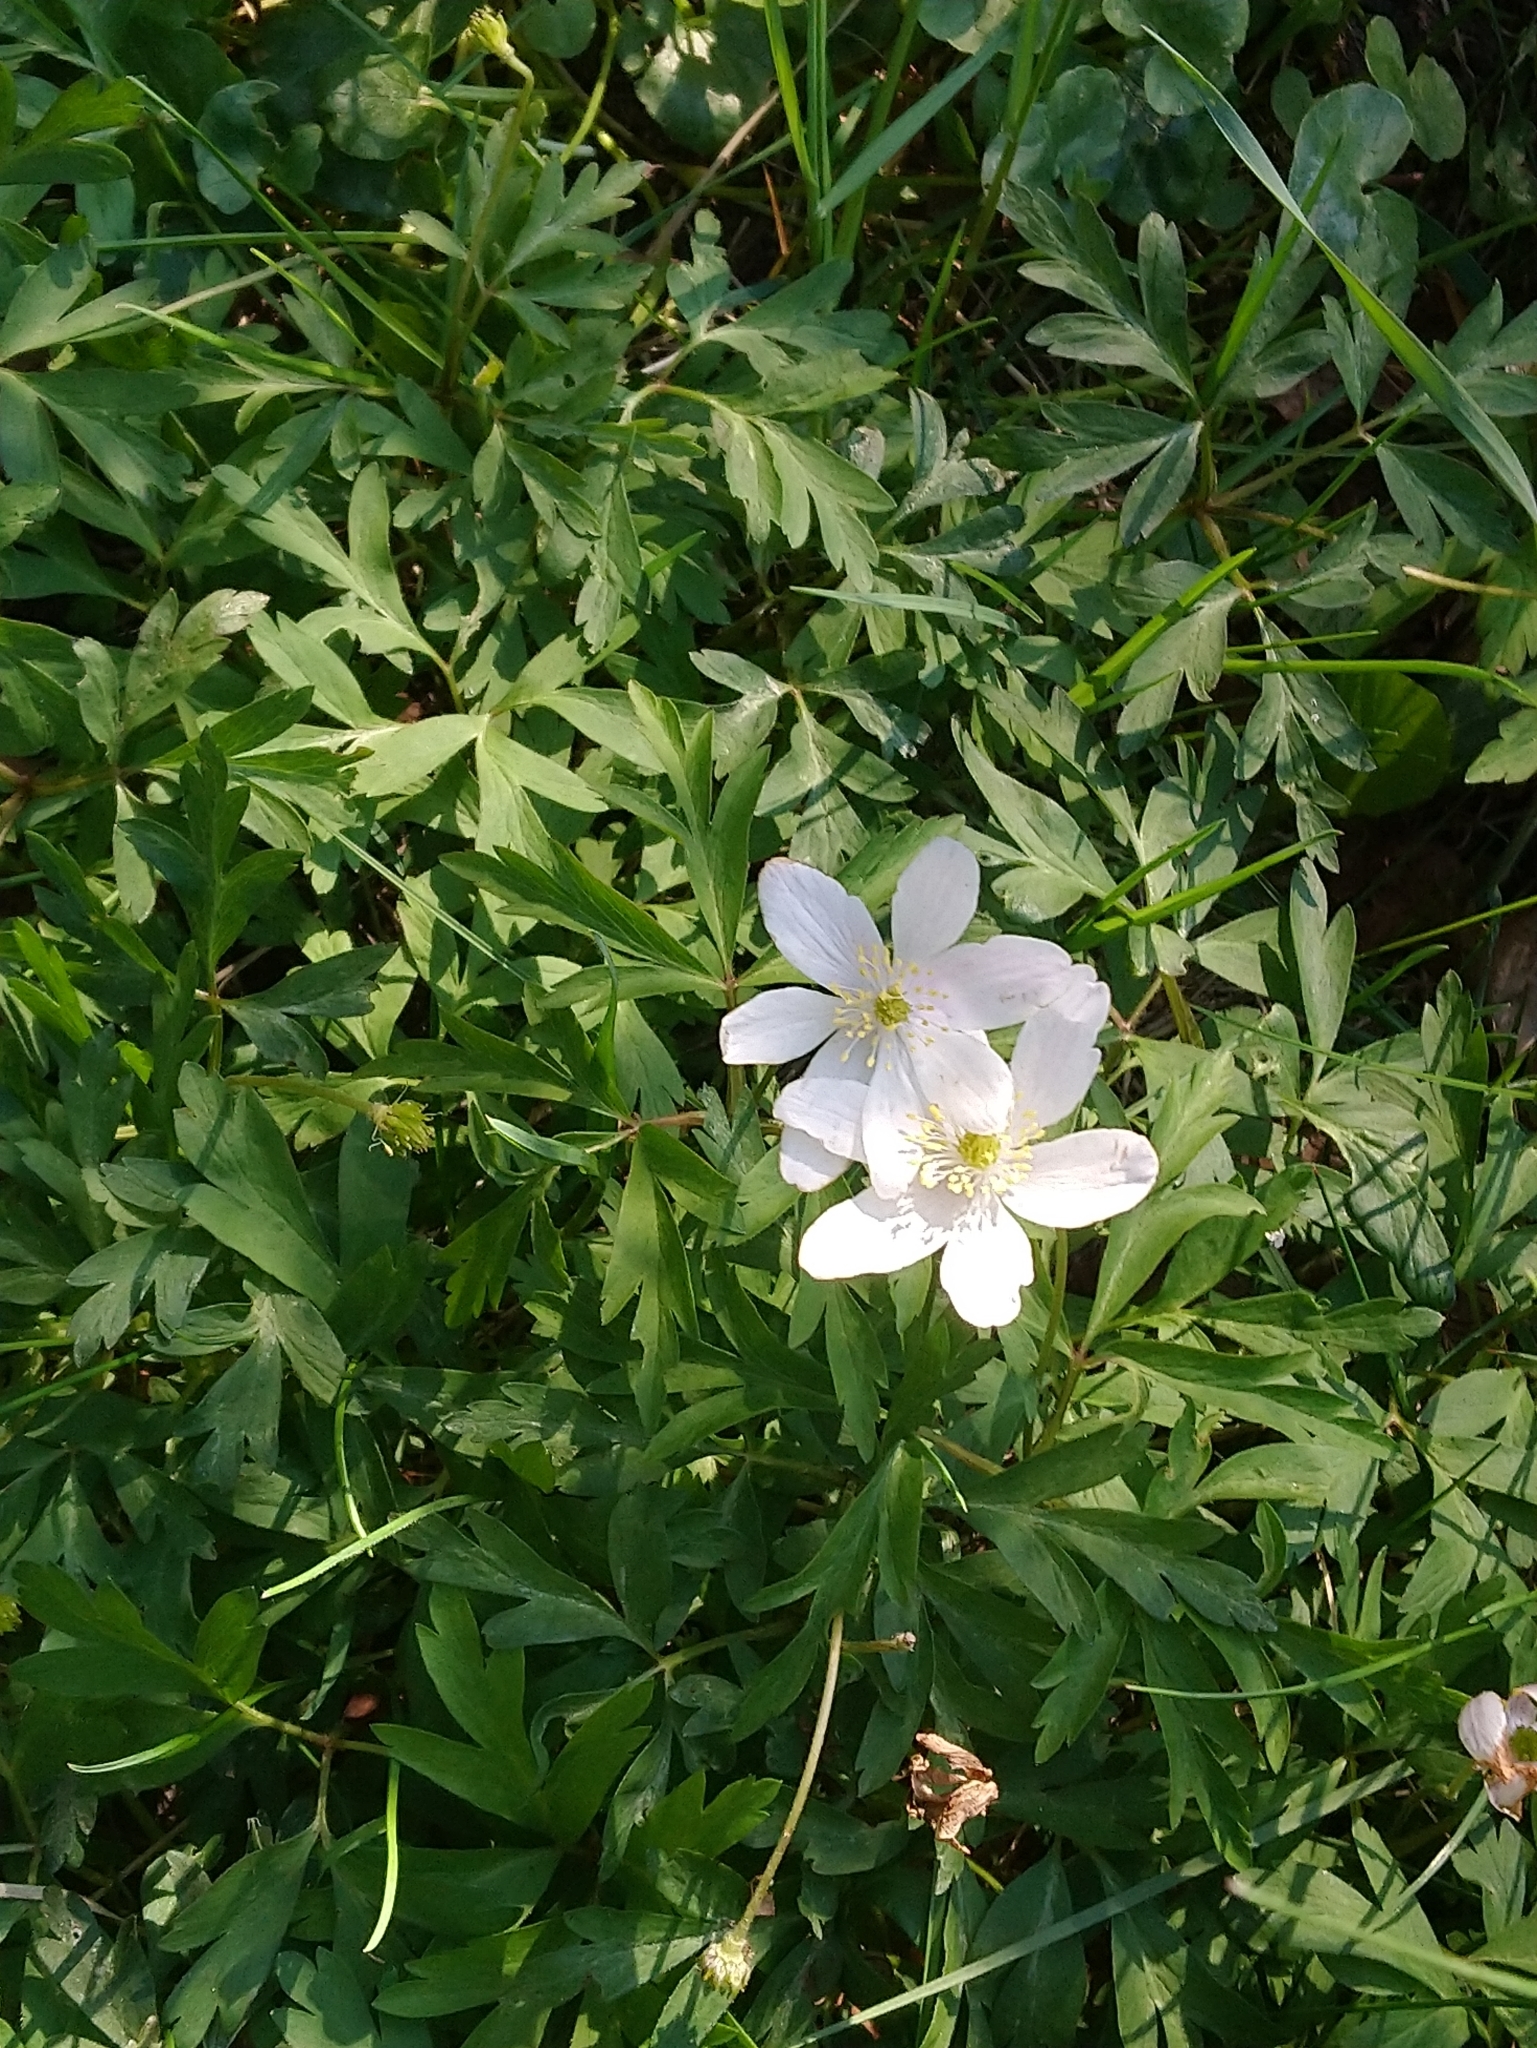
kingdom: Plantae
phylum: Tracheophyta
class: Magnoliopsida
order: Ranunculales
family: Ranunculaceae
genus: Anemone
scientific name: Anemone nemorosa
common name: Wood anemone
